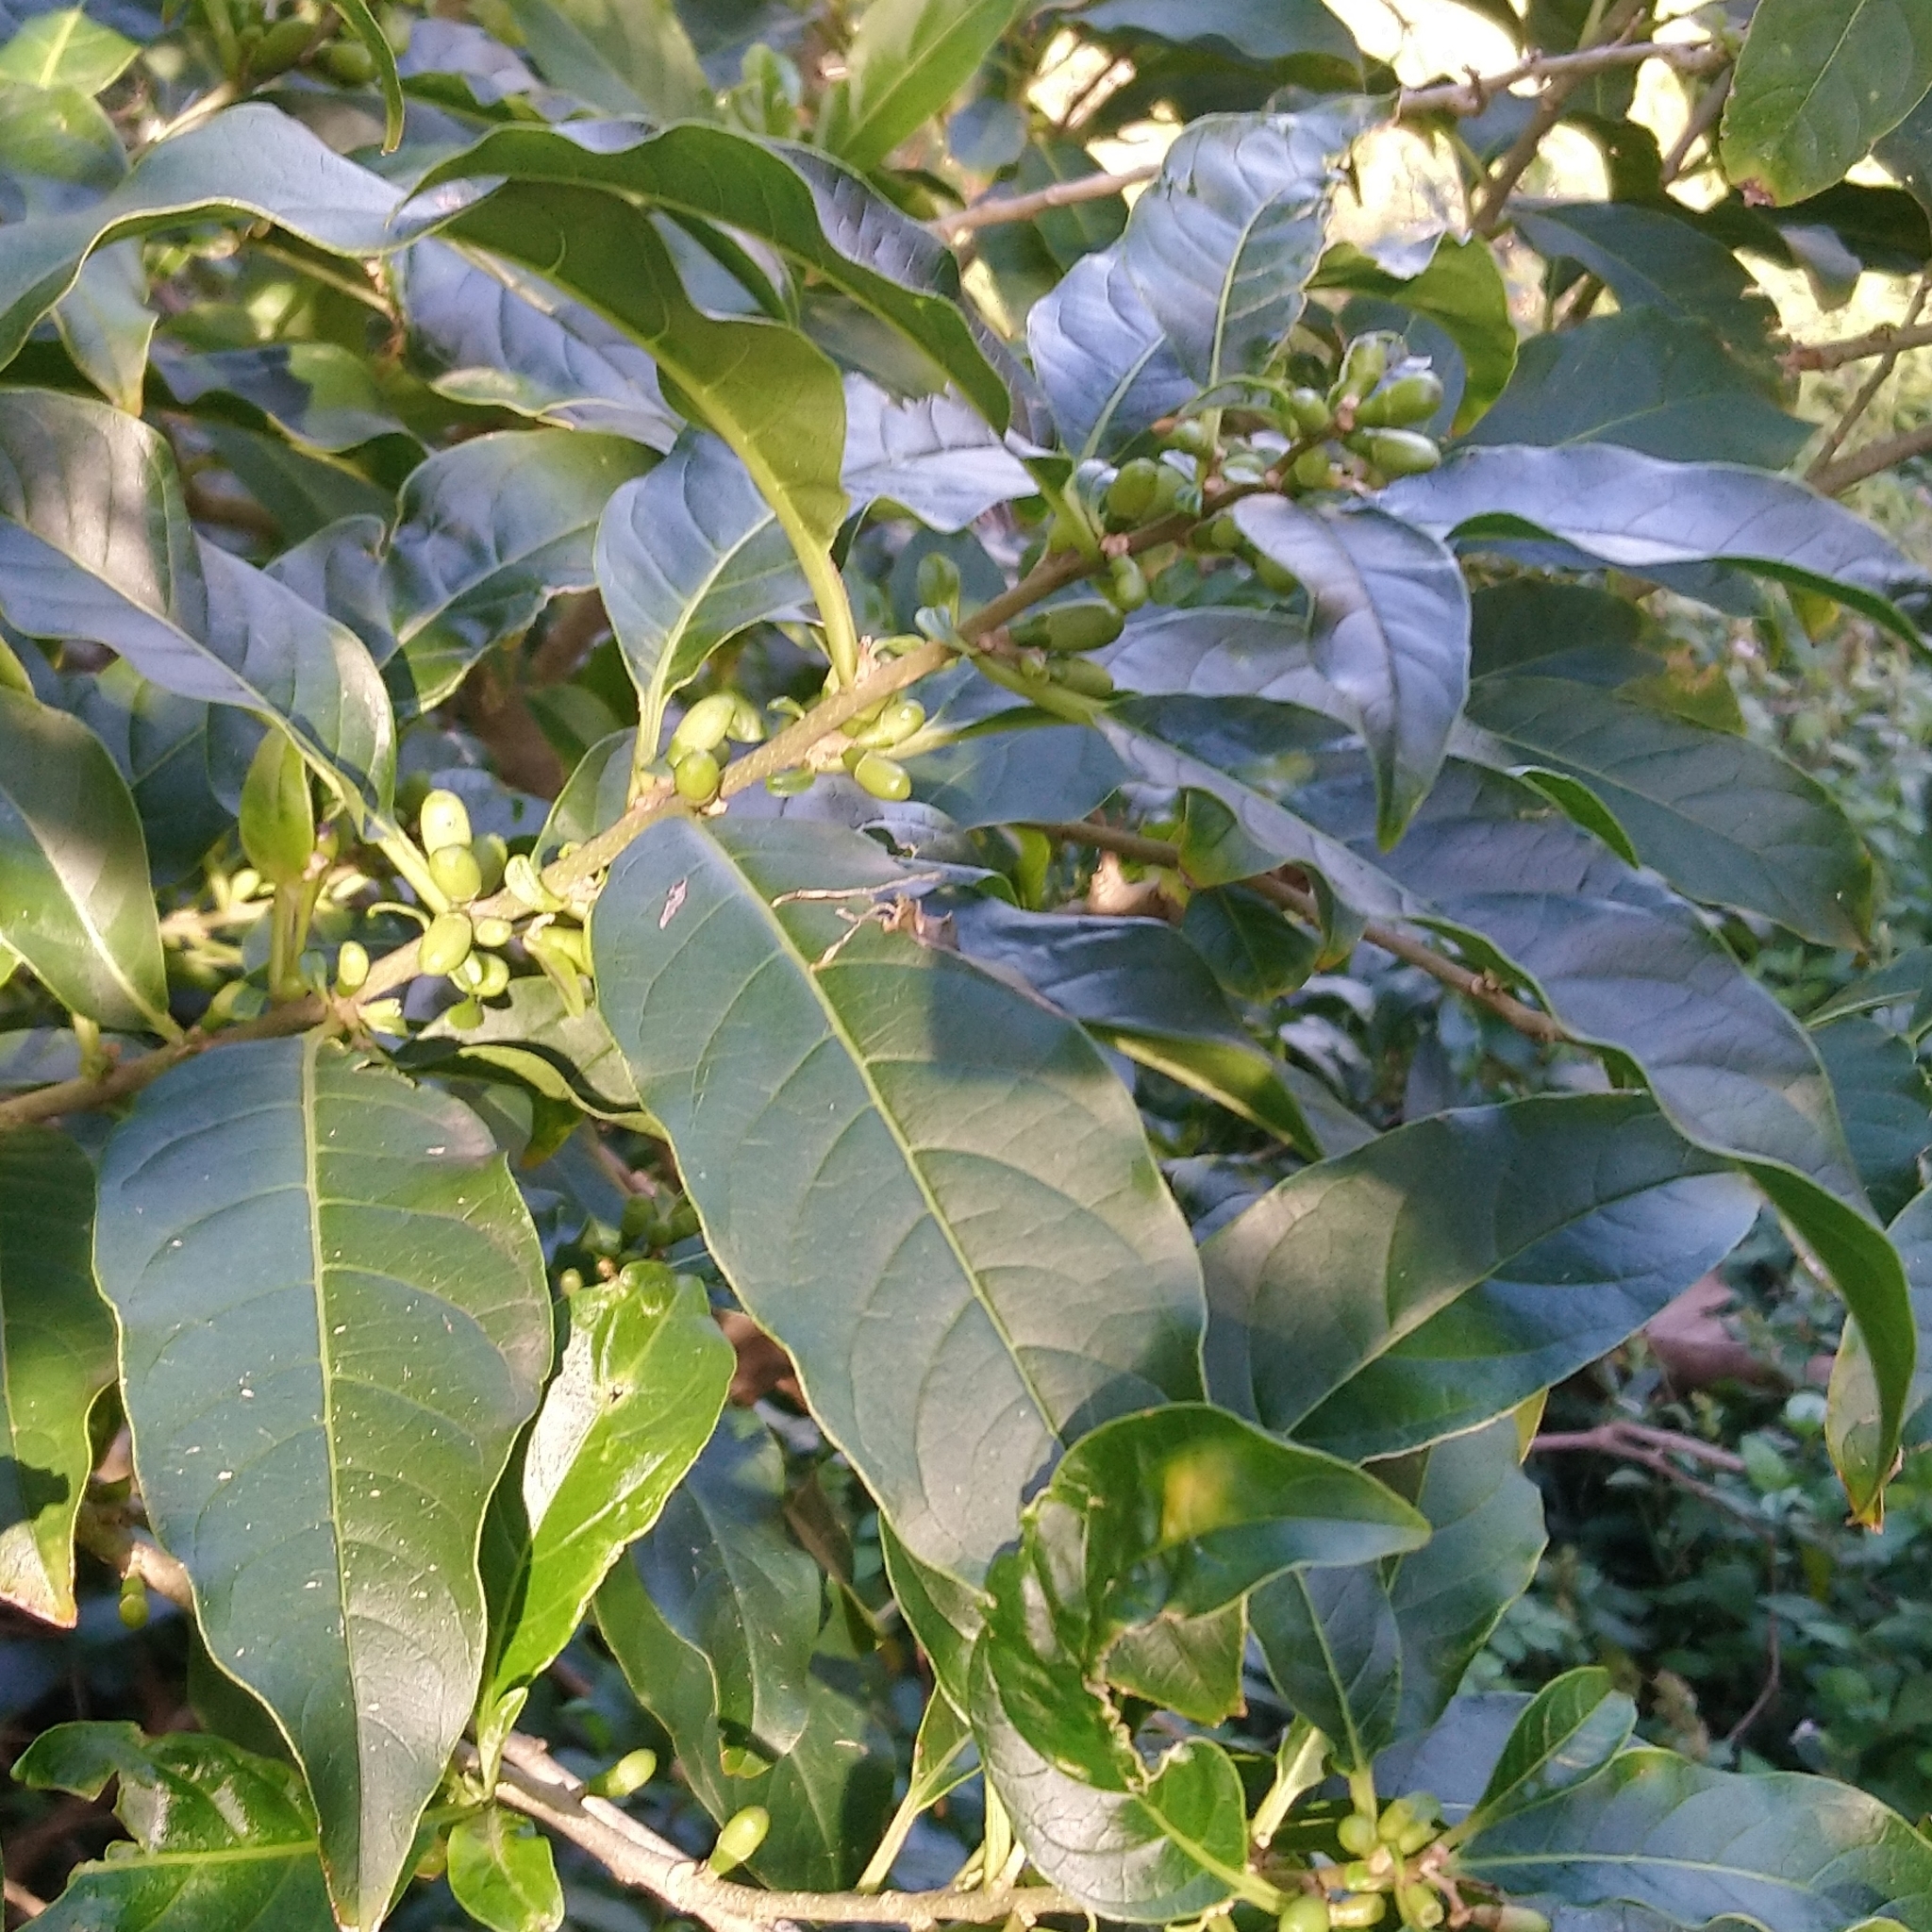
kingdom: Plantae
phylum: Tracheophyta
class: Magnoliopsida
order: Solanales
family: Solanaceae
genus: Cestrum
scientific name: Cestrum laevigatum
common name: Inkberry
